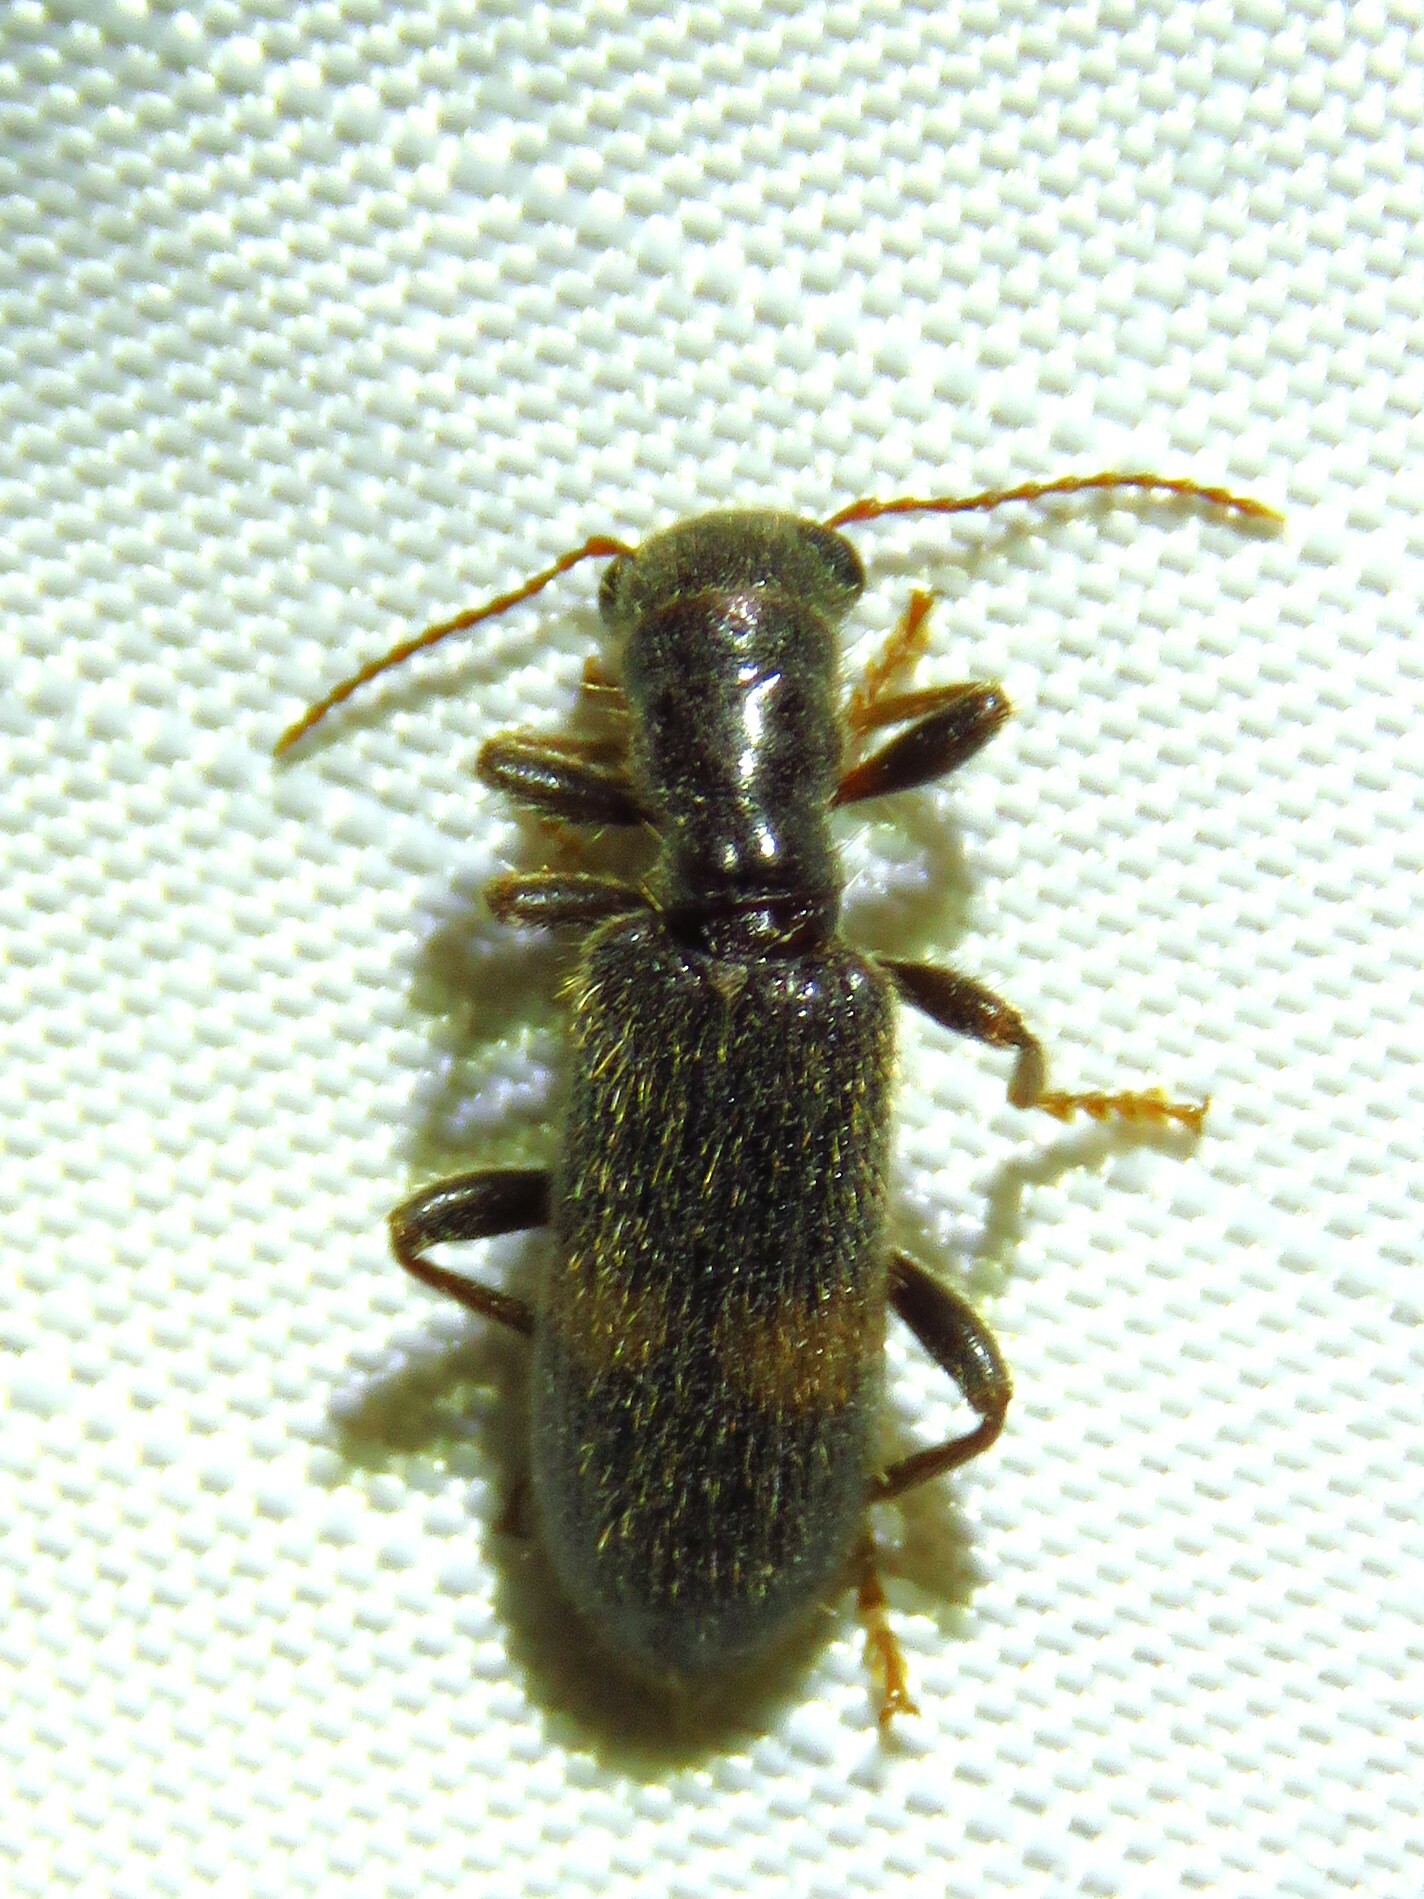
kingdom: Animalia
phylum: Arthropoda
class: Insecta
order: Coleoptera
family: Cleridae
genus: Cymatodera
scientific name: Cymatodera dietrichi
